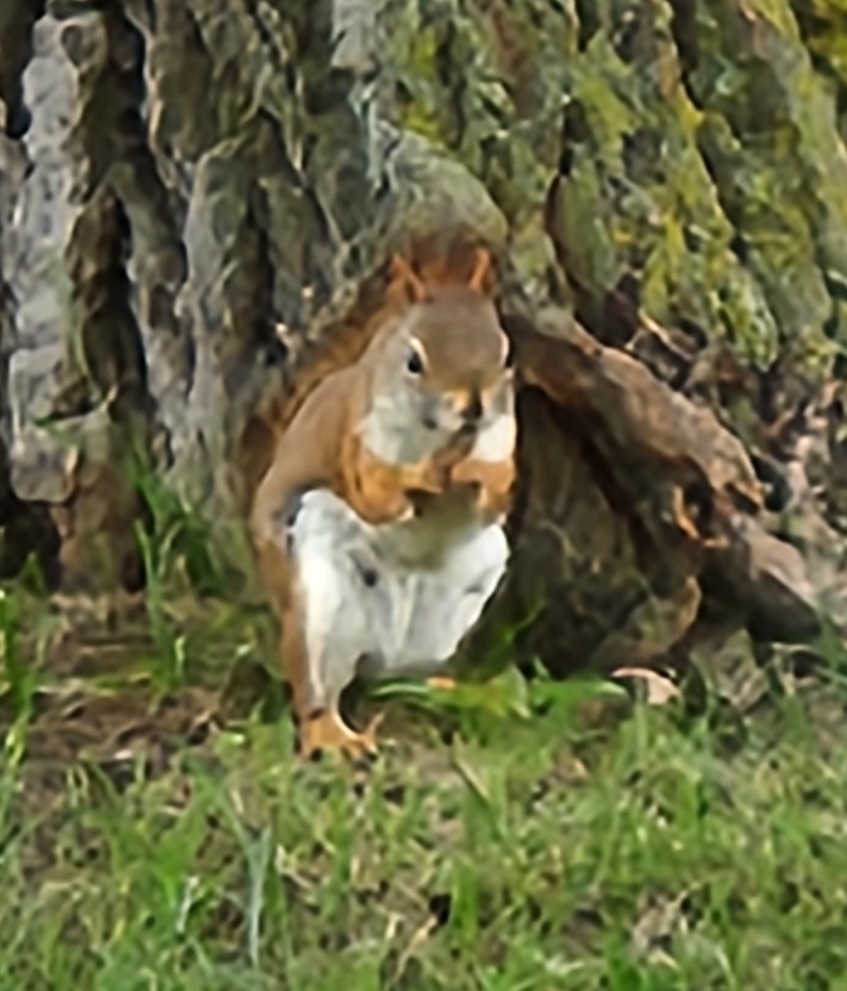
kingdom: Animalia
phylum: Chordata
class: Mammalia
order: Rodentia
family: Sciuridae
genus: Tamiasciurus
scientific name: Tamiasciurus hudsonicus
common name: Red squirrel
